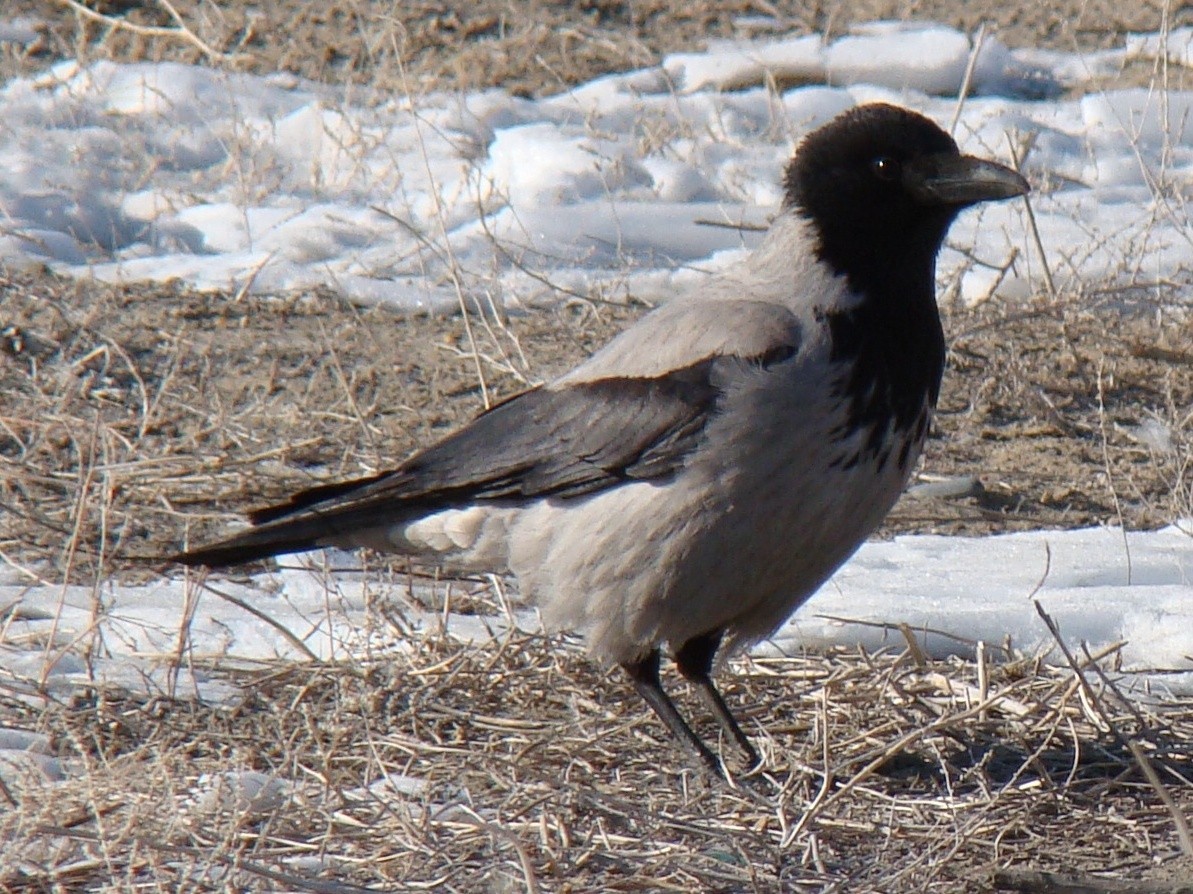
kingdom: Animalia
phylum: Chordata
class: Aves
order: Passeriformes
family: Corvidae
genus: Corvus
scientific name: Corvus cornix
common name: Hooded crow
